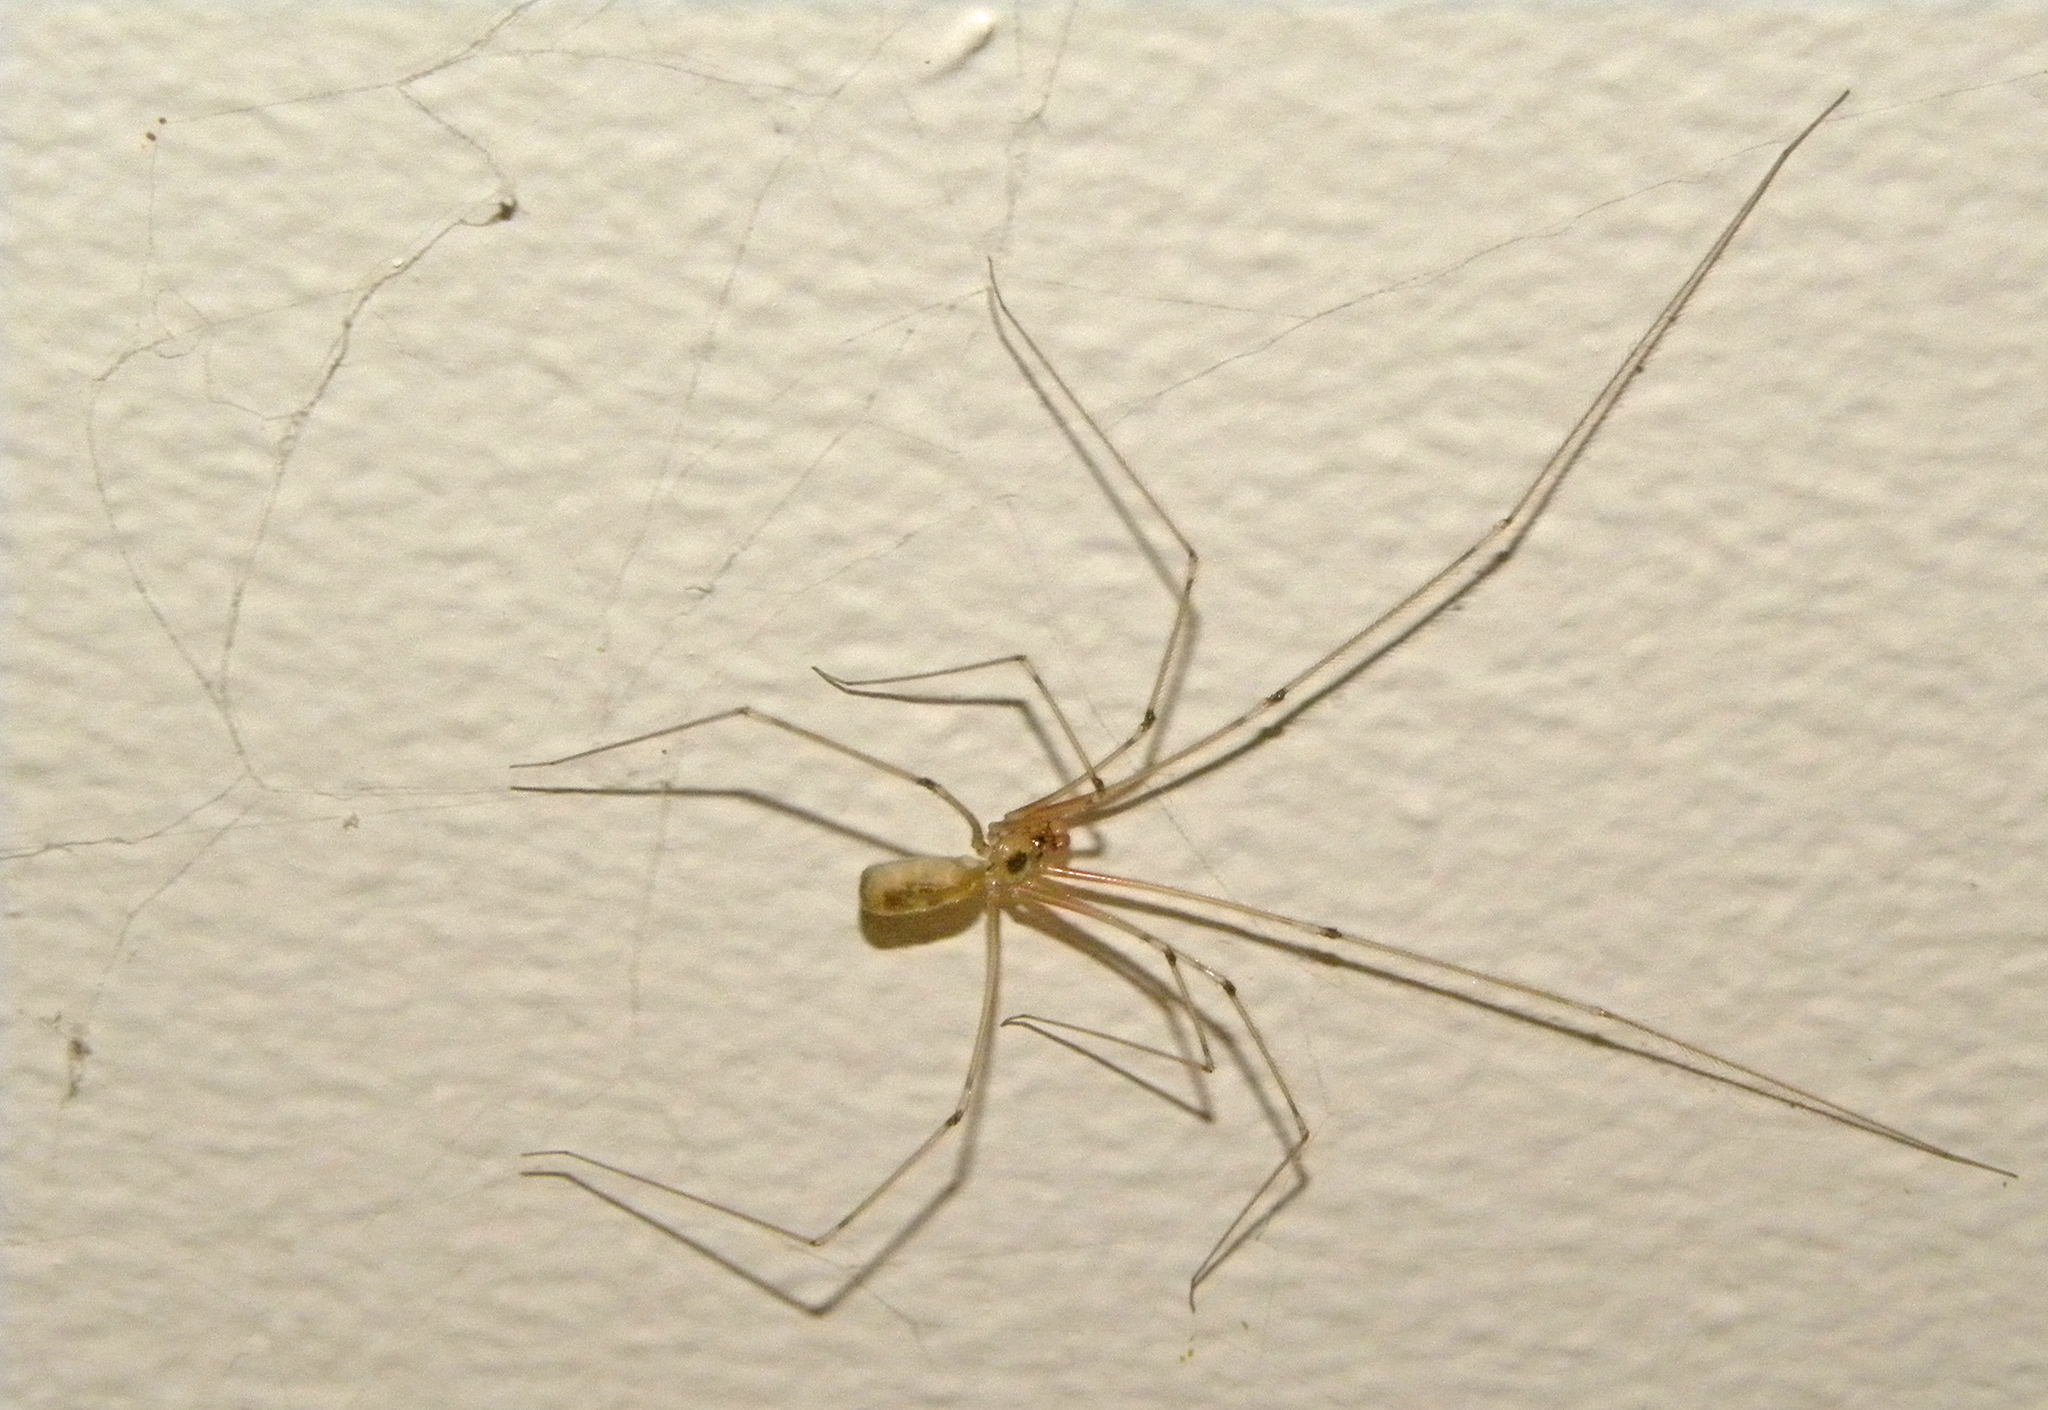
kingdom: Animalia
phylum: Arthropoda
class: Arachnida
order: Araneae
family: Pholcidae
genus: Pholcus
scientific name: Pholcus phalangioides
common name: Longbodied cellar spider
